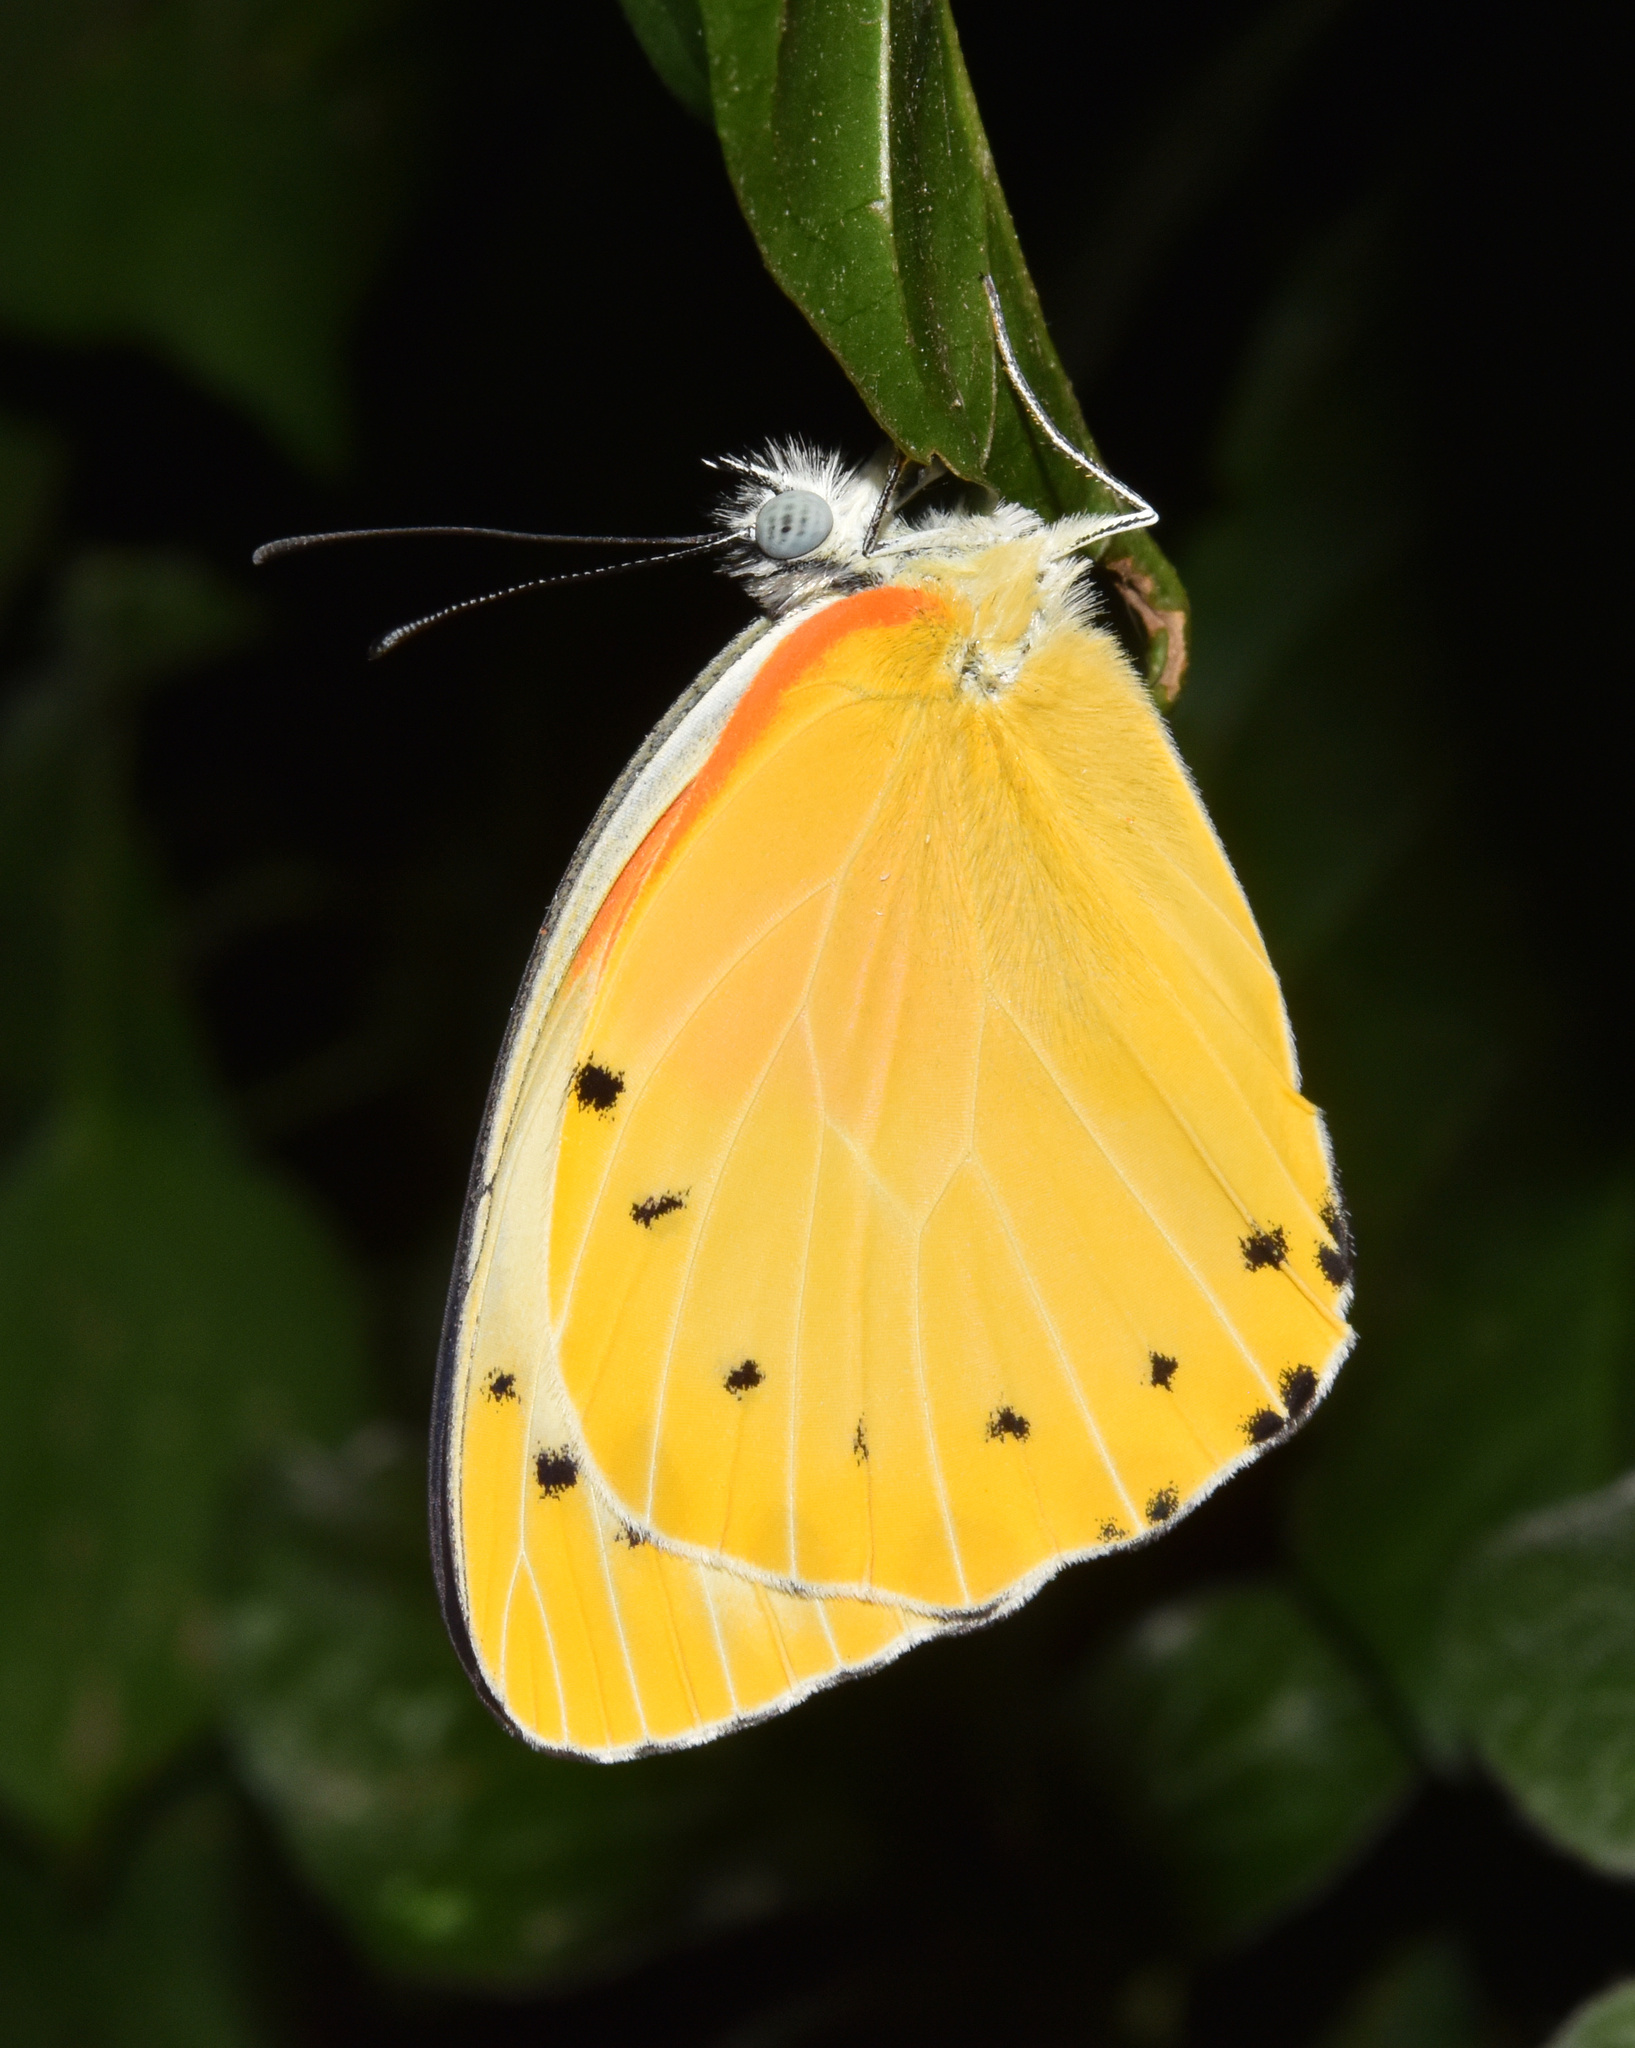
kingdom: Animalia
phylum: Arthropoda
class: Insecta
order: Lepidoptera
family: Pieridae
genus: Belenois
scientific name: Belenois thysa
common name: False dotted border
